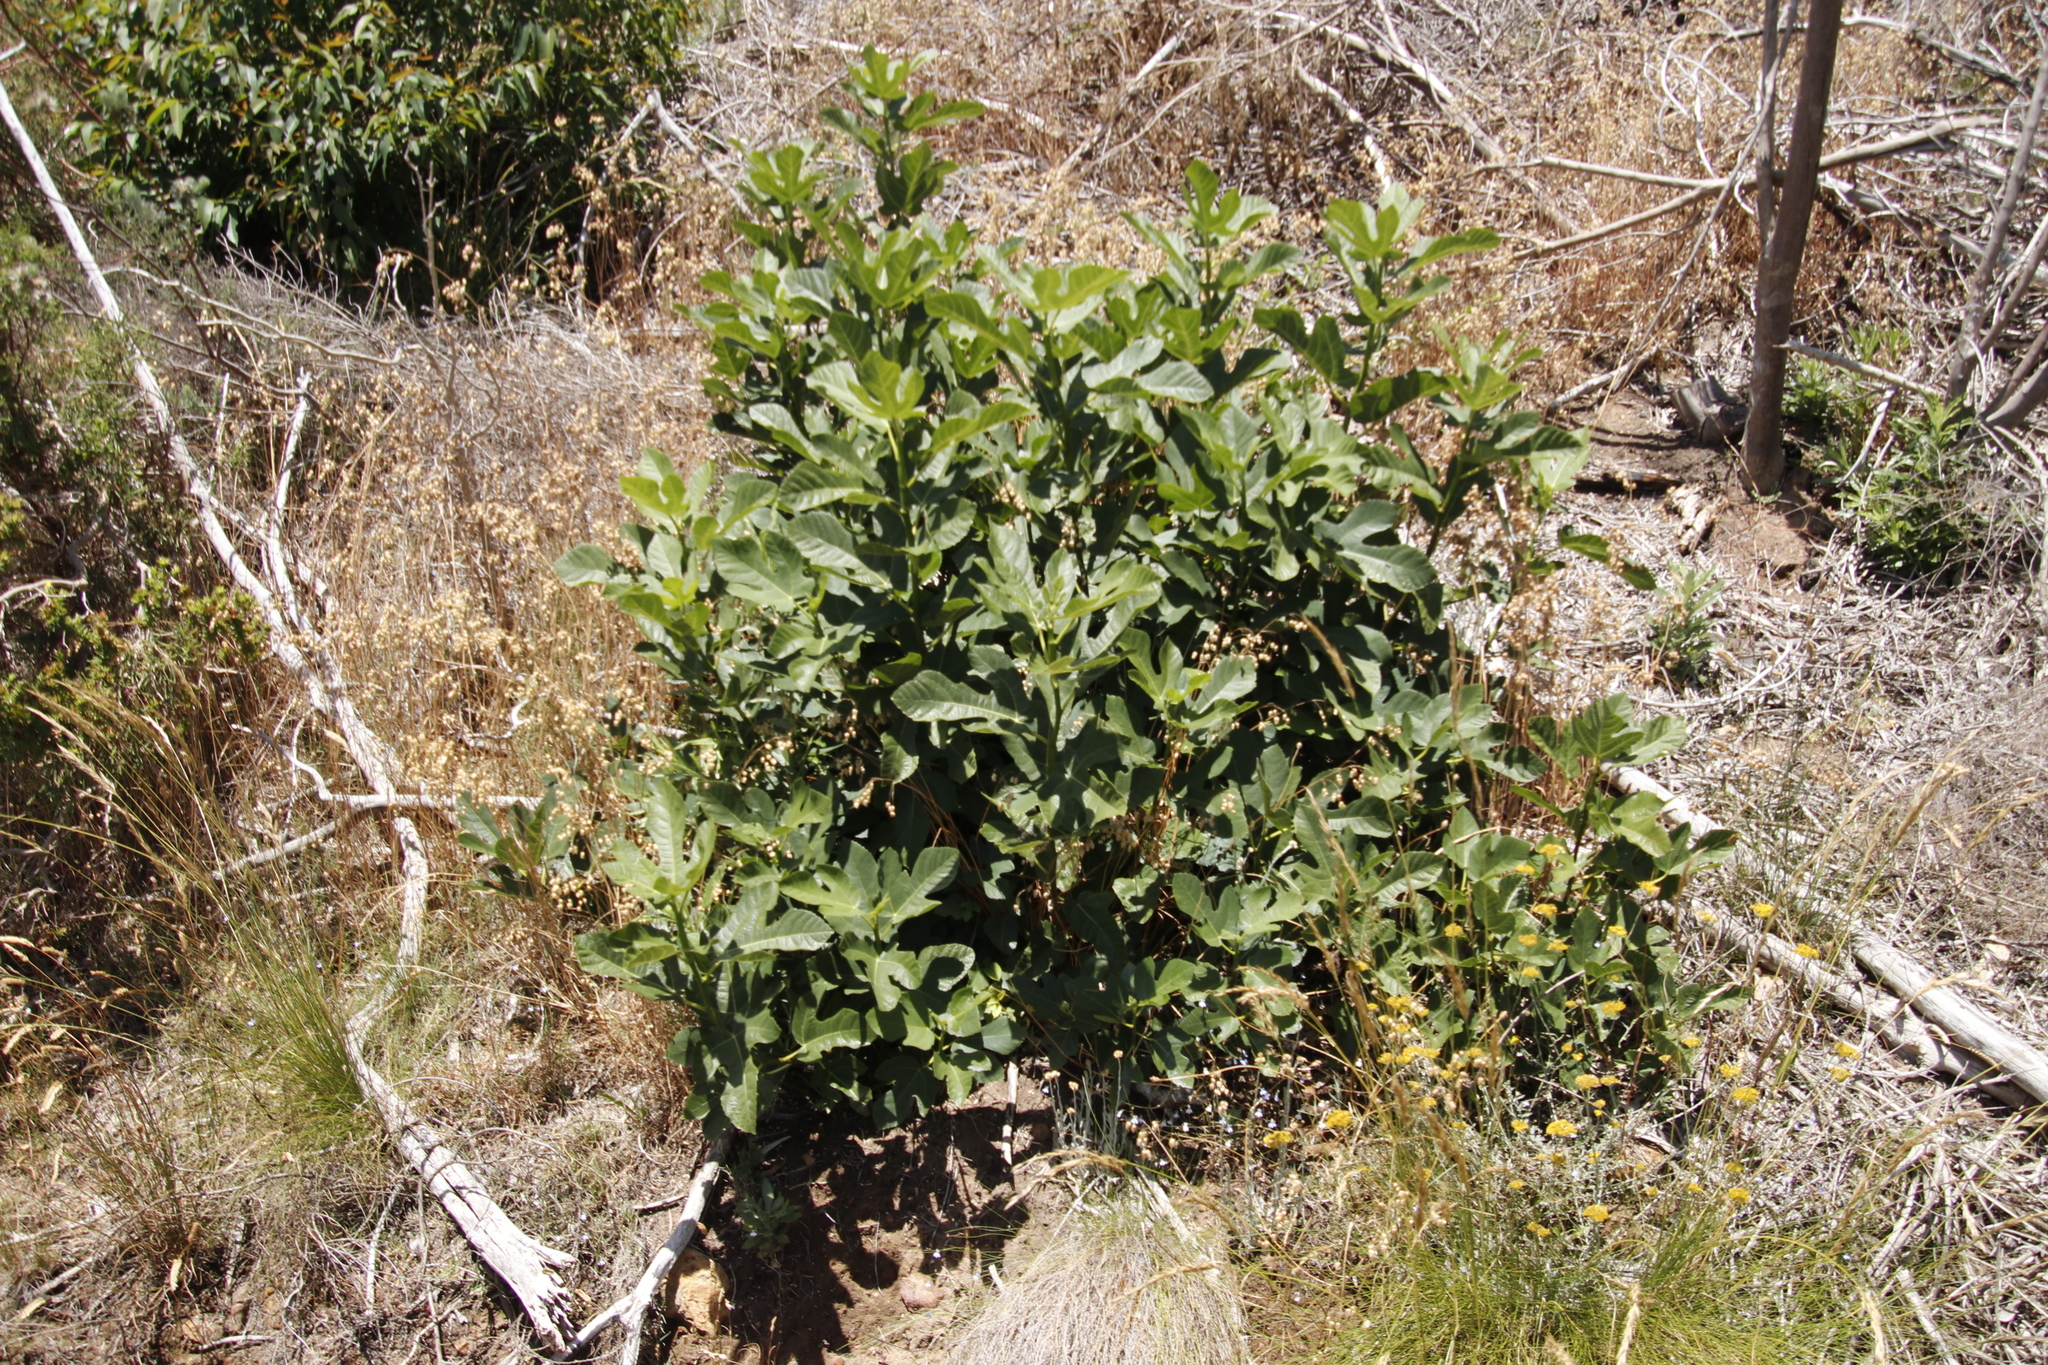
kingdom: Plantae
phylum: Tracheophyta
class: Magnoliopsida
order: Rosales
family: Moraceae
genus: Ficus
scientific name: Ficus carica
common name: Fig
